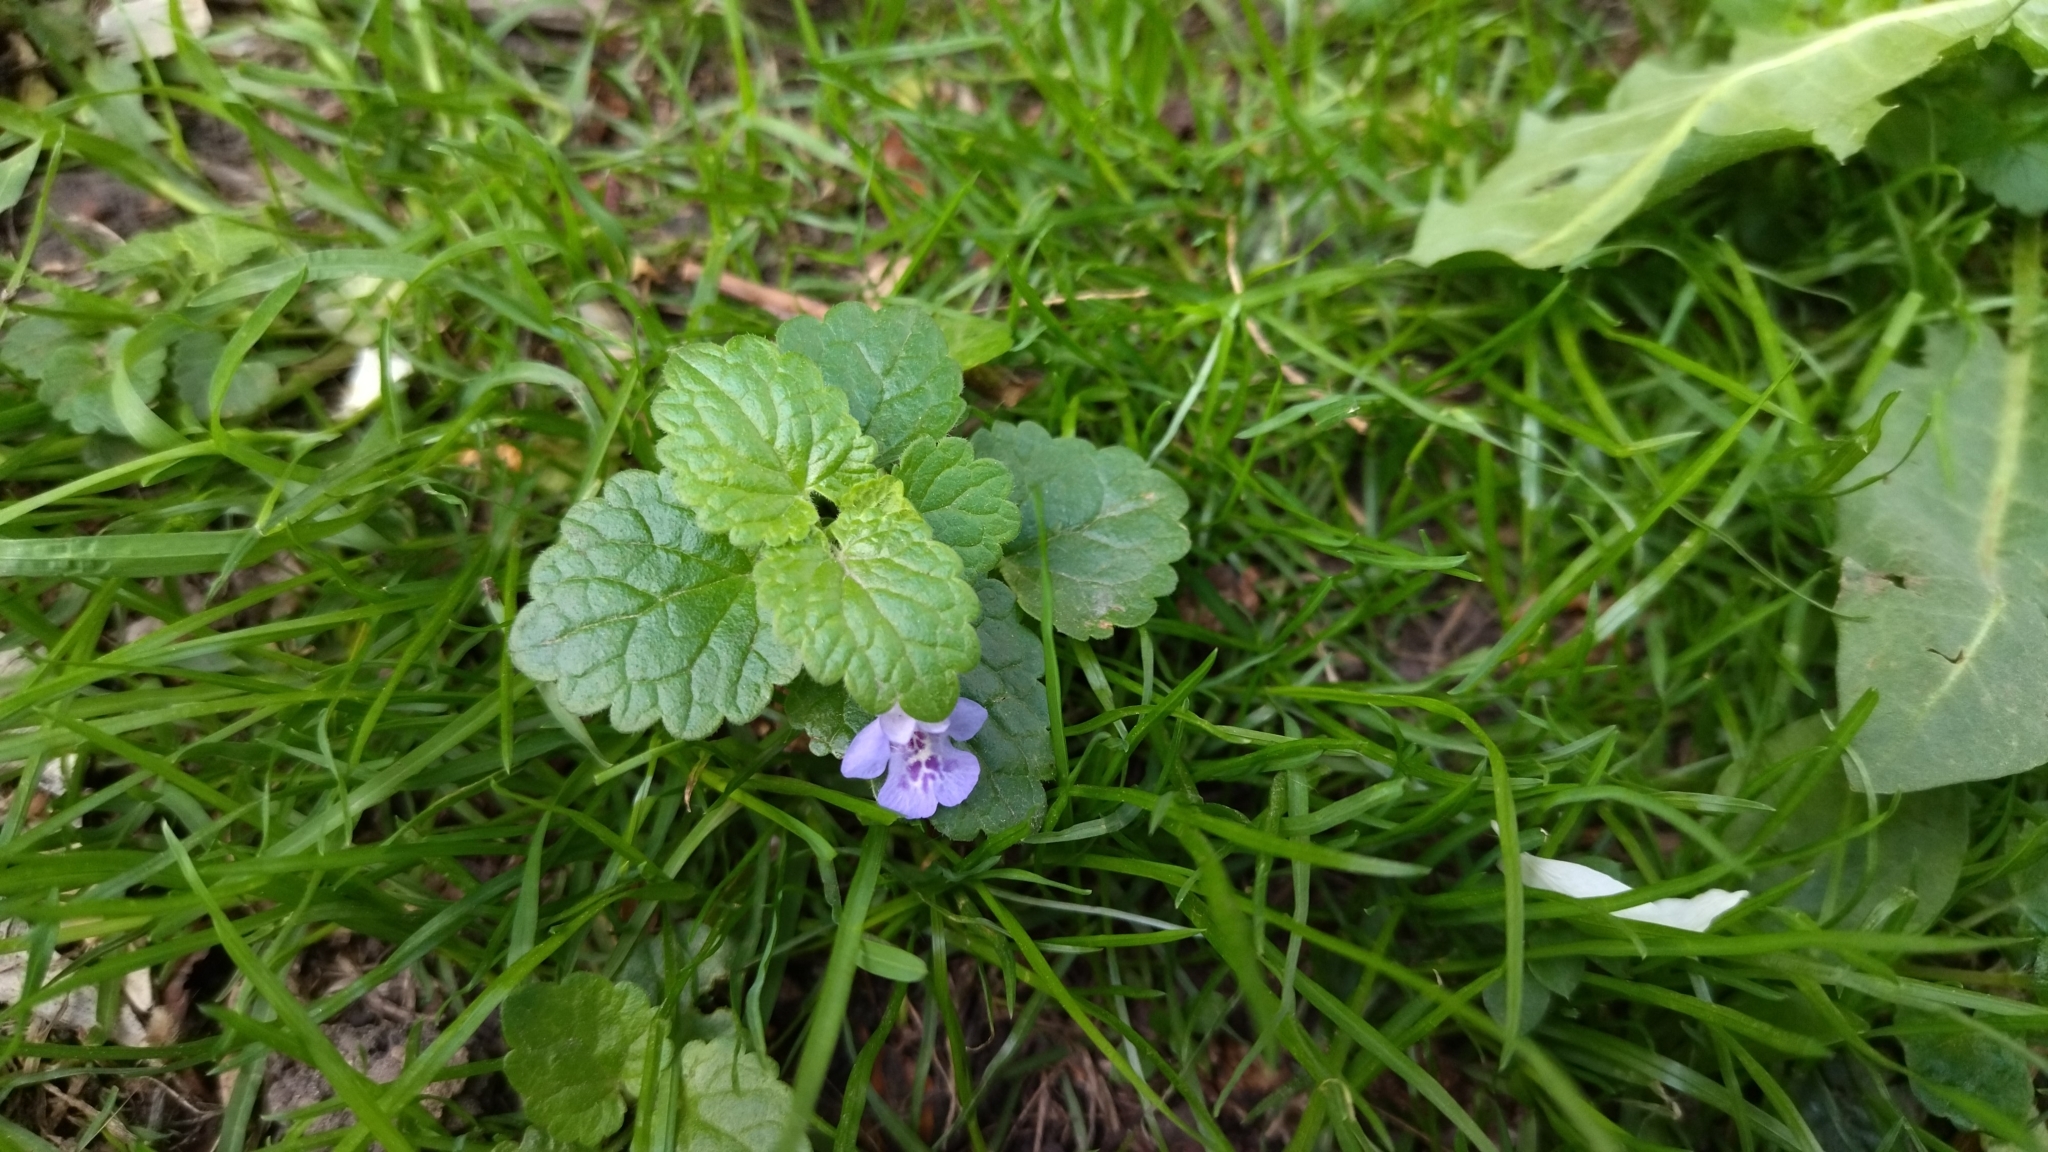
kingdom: Plantae
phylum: Tracheophyta
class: Magnoliopsida
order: Lamiales
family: Lamiaceae
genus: Glechoma
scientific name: Glechoma hederacea
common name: Ground ivy
